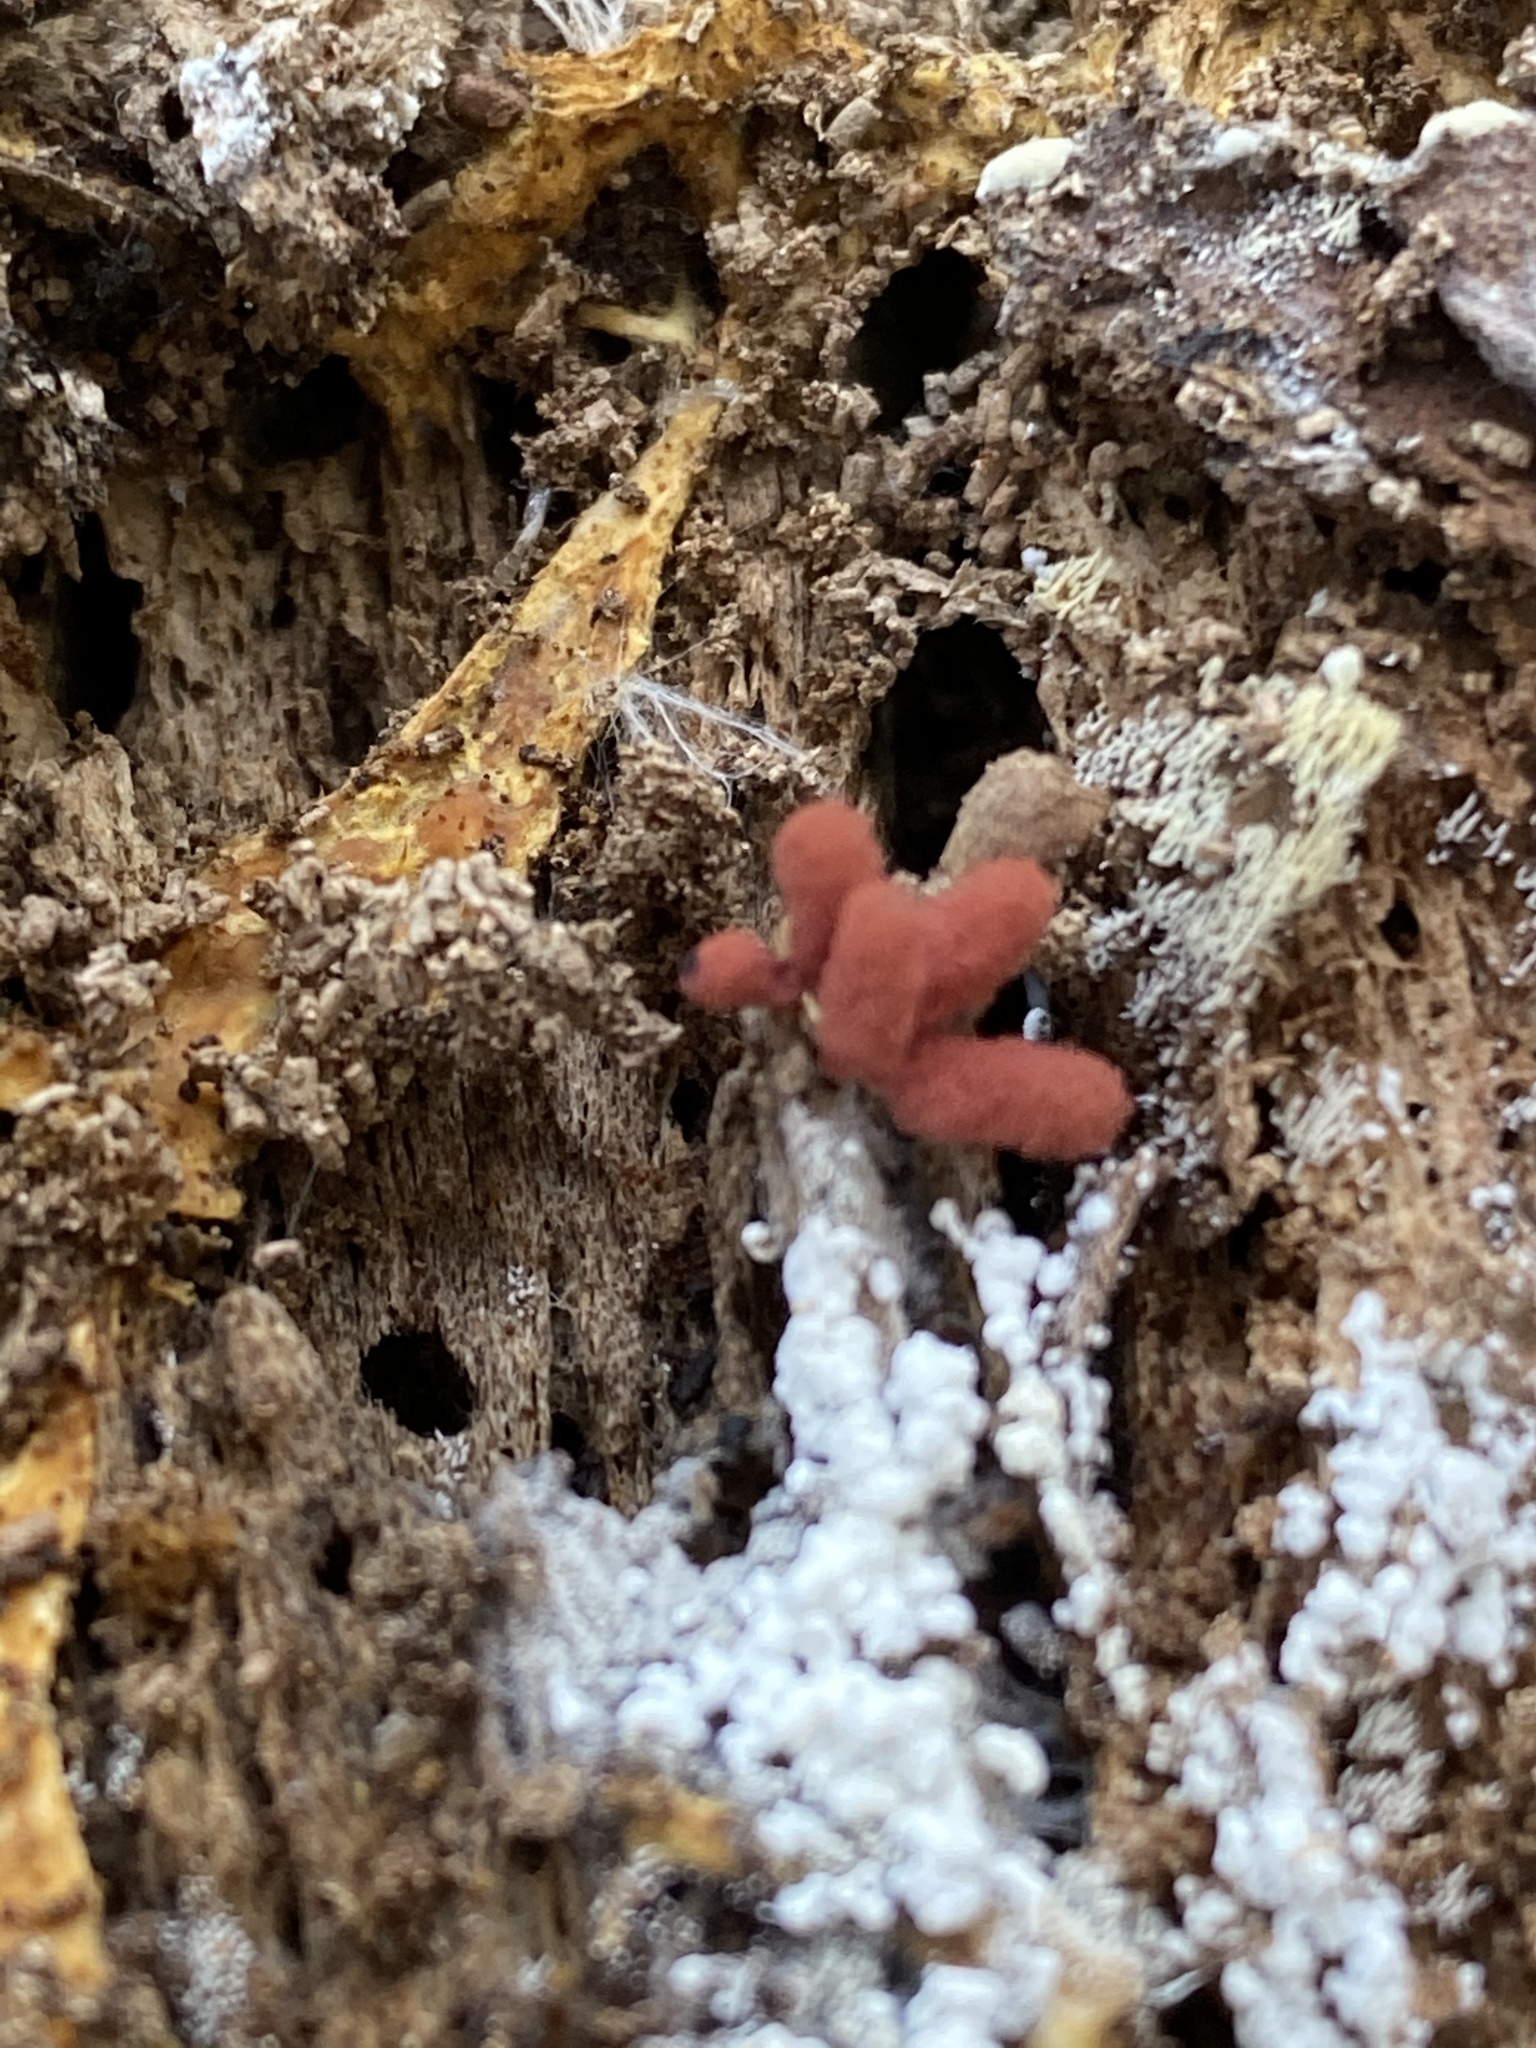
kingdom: Protozoa
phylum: Mycetozoa
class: Myxomycetes
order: Trichiales
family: Arcyriaceae
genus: Arcyria
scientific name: Arcyria denudata
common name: Carnival candy slime mold
